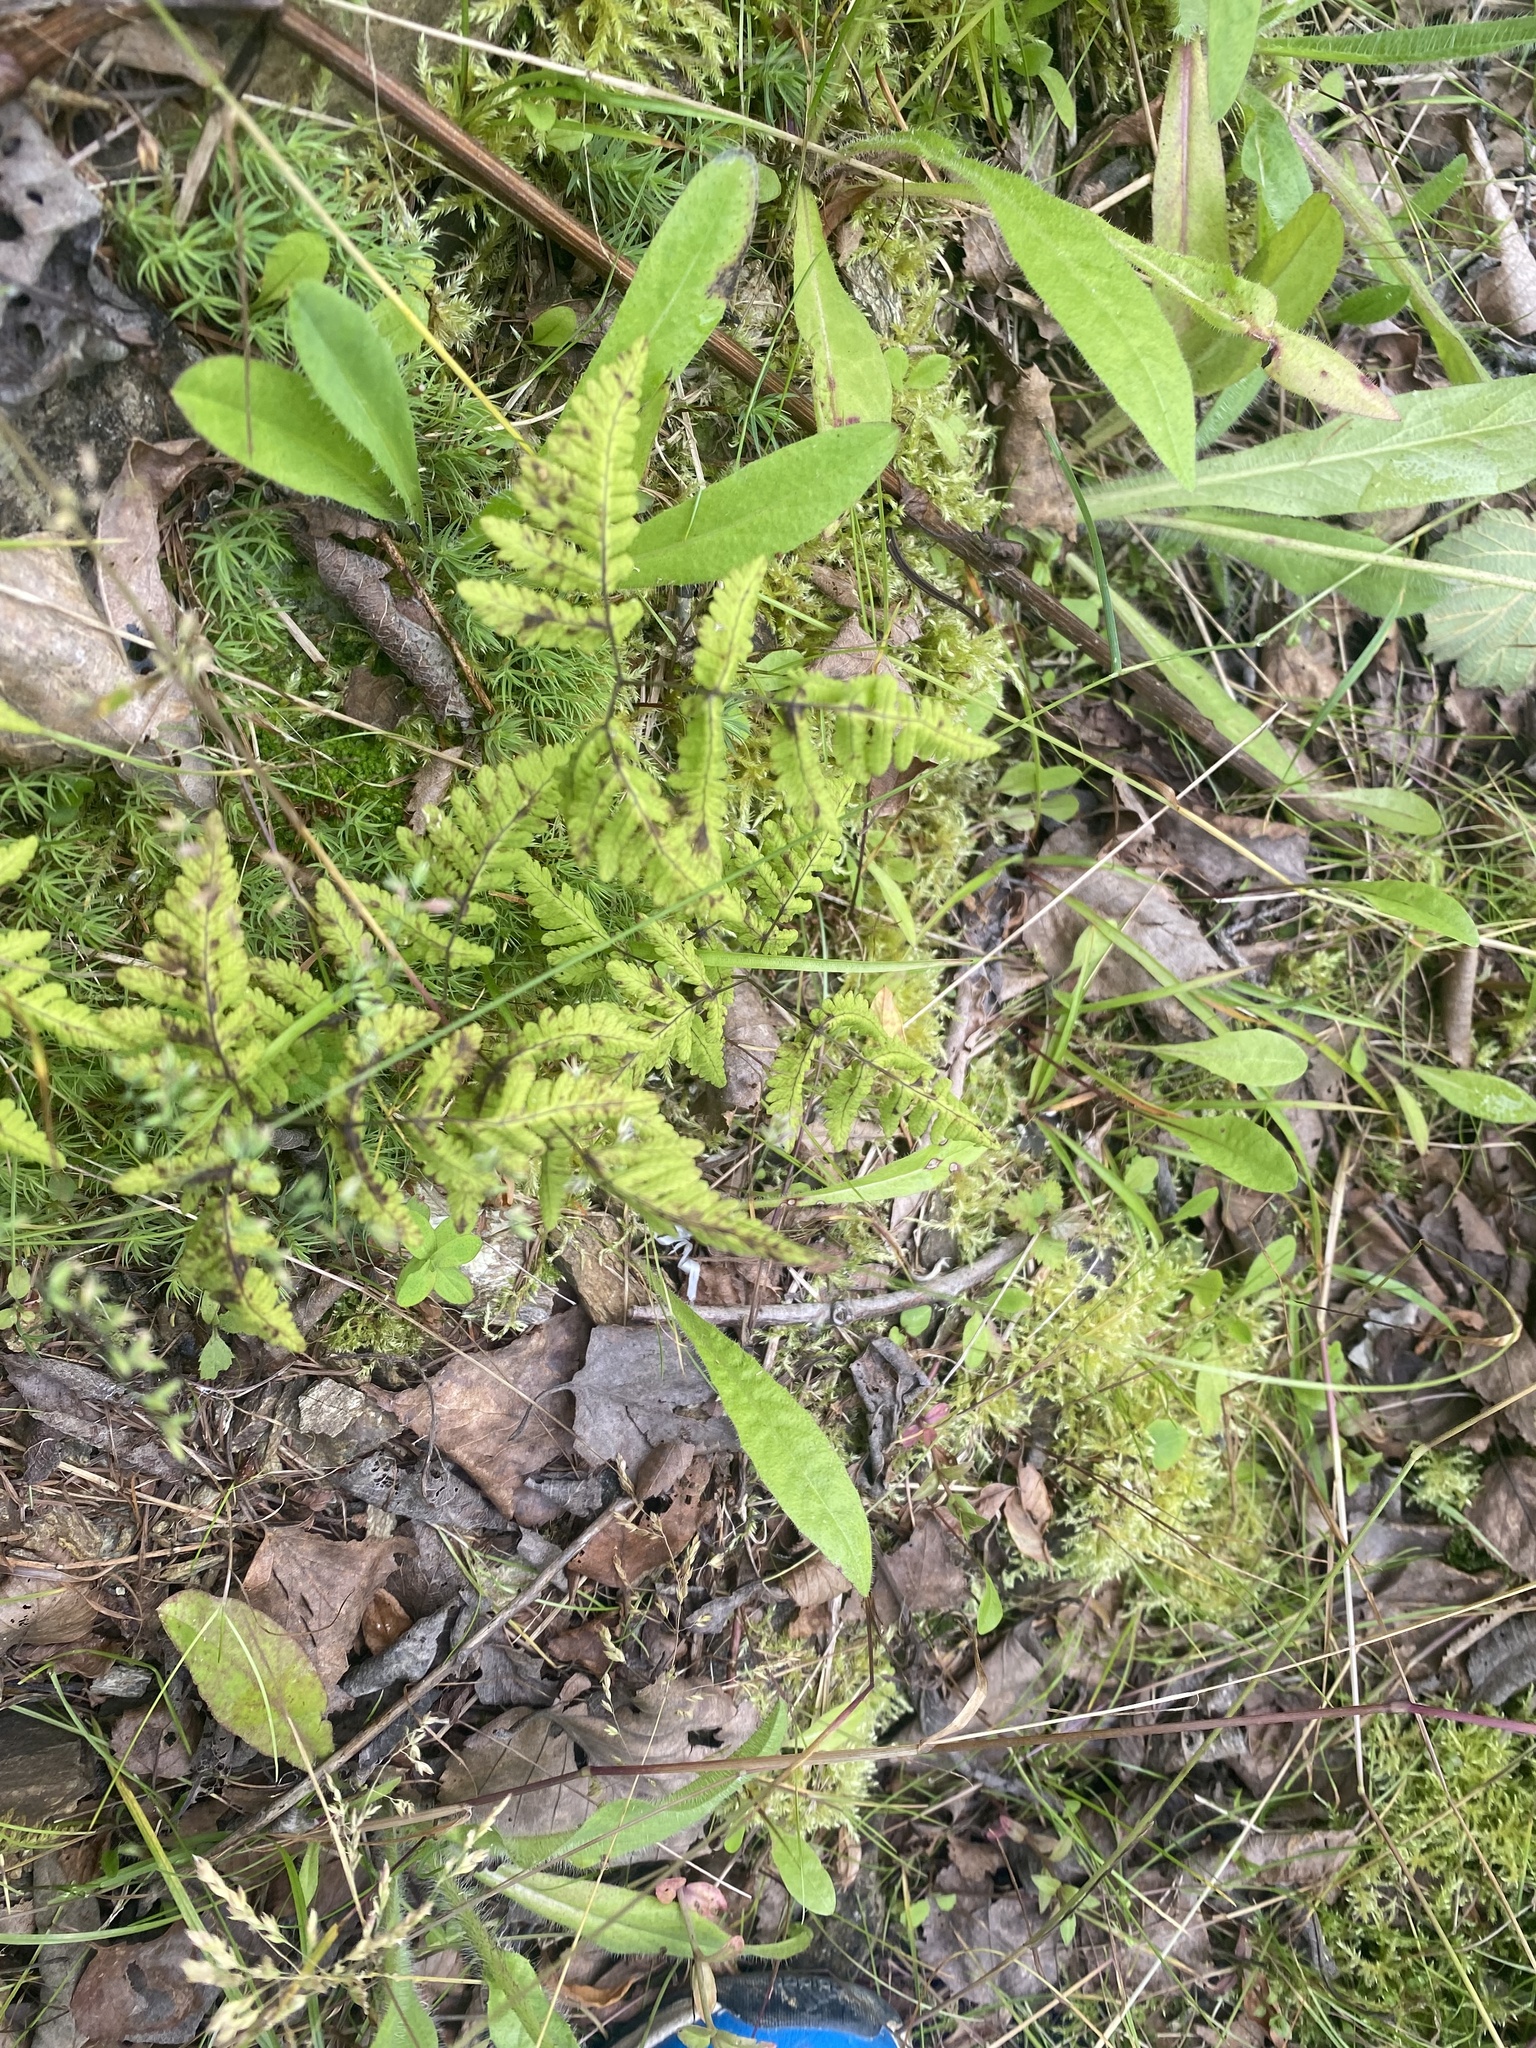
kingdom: Plantae
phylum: Tracheophyta
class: Polypodiopsida
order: Polypodiales
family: Cystopteridaceae
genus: Gymnocarpium
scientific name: Gymnocarpium dryopteris
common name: Oak fern
